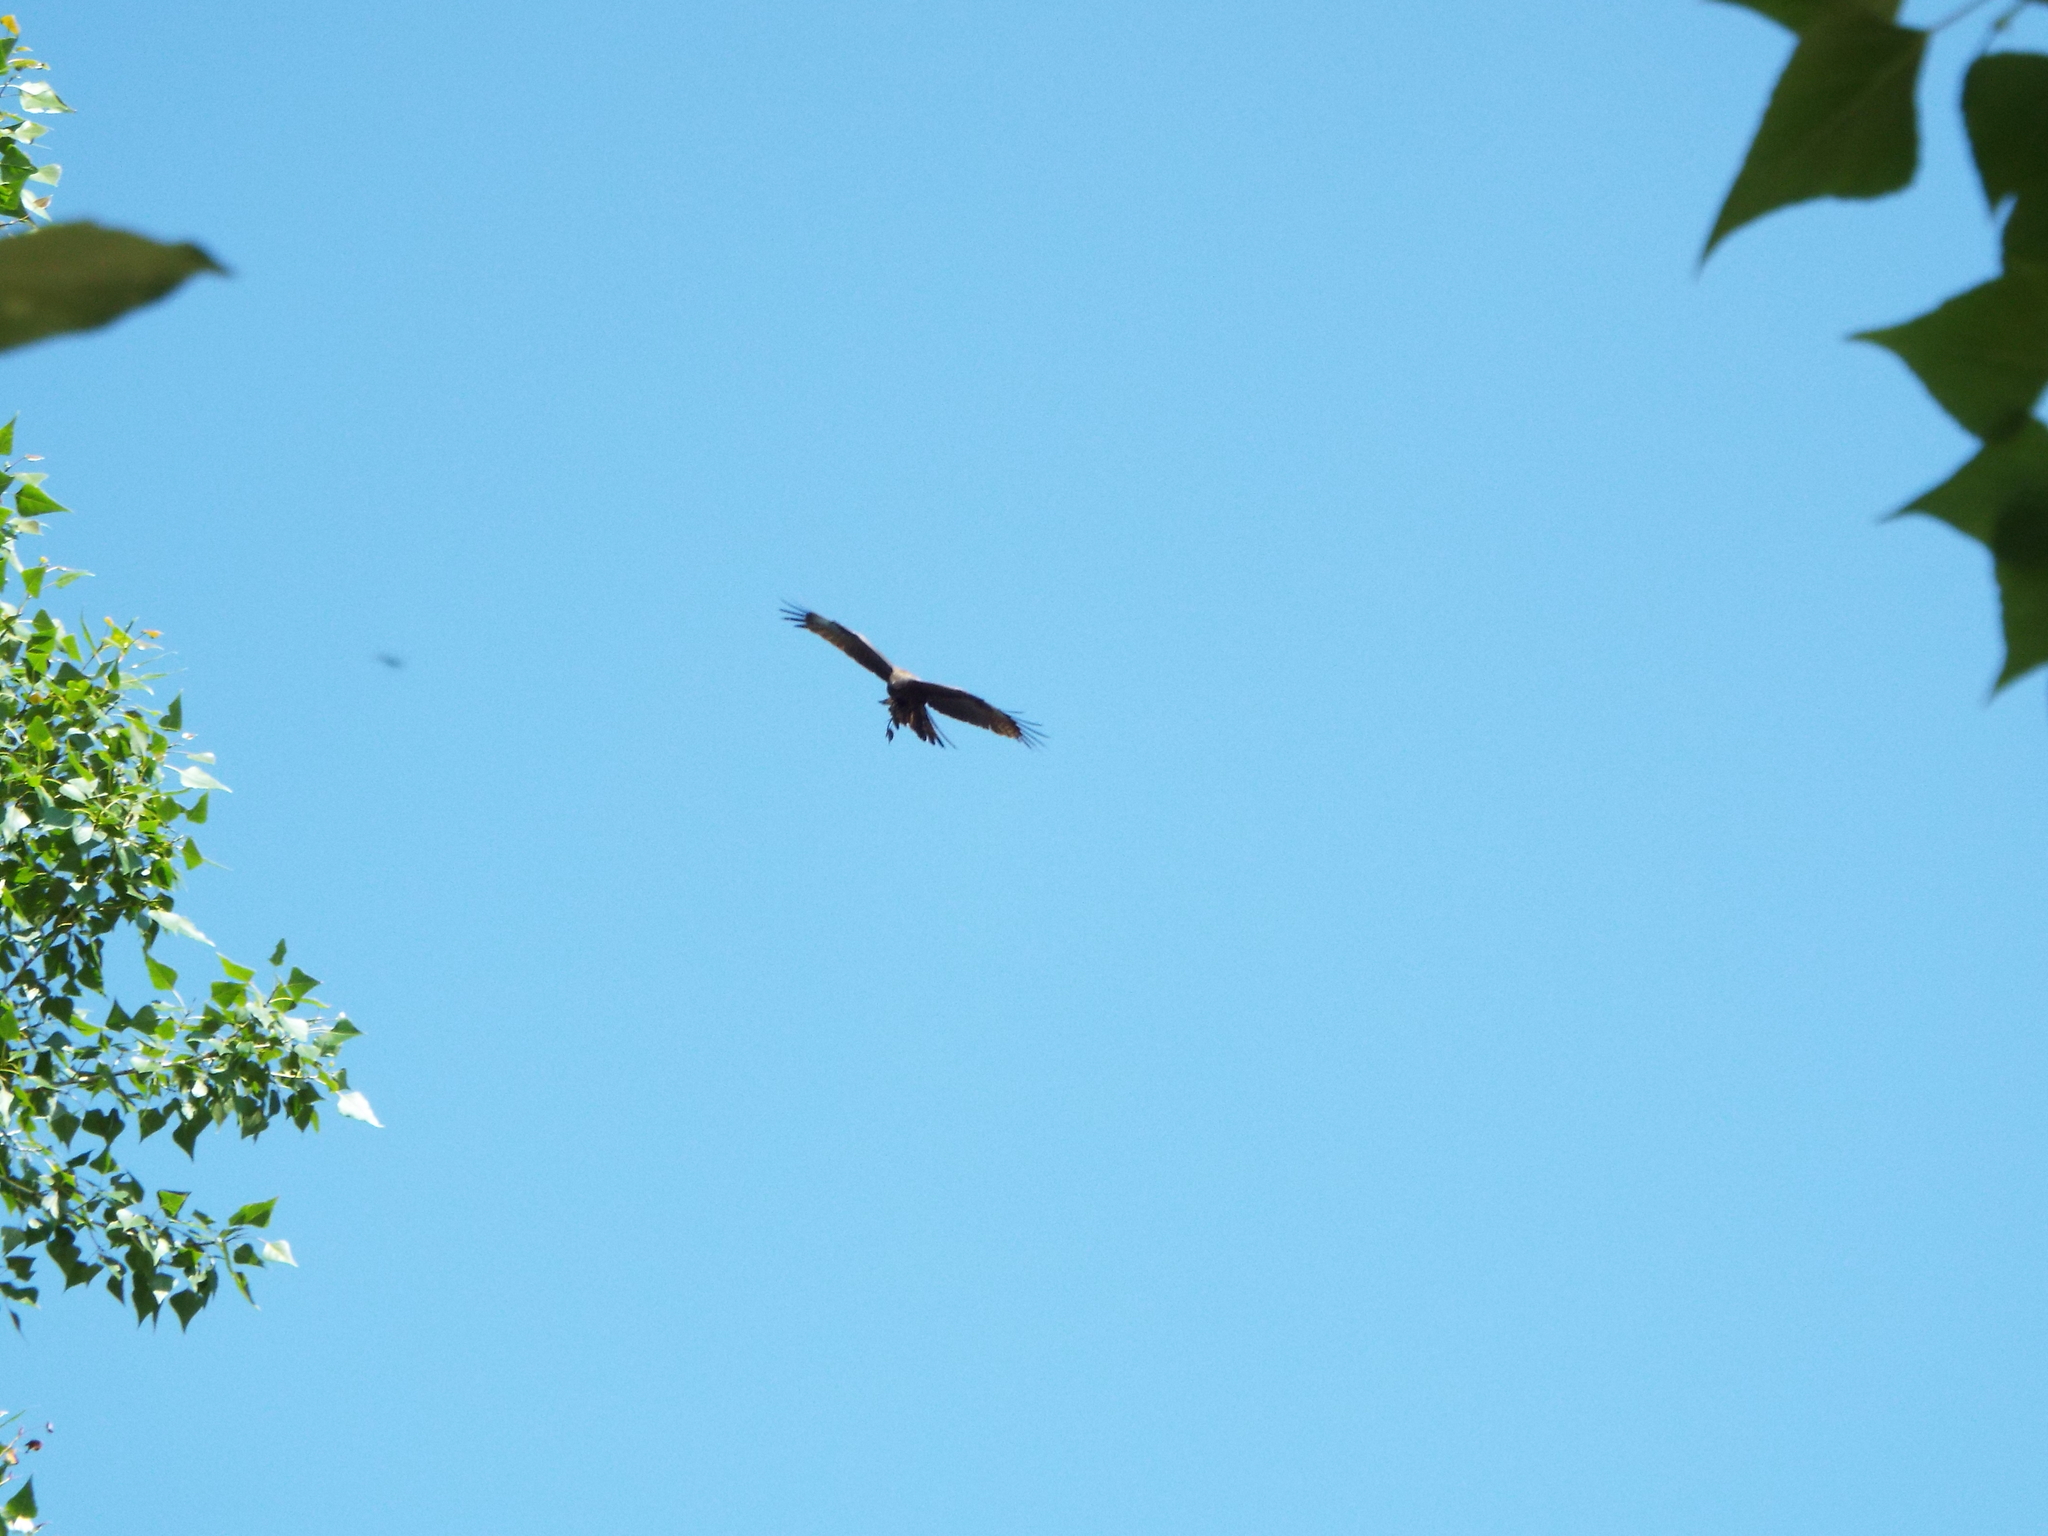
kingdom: Animalia
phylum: Chordata
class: Aves
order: Accipitriformes
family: Accipitridae
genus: Milvus
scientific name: Milvus migrans
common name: Black kite
